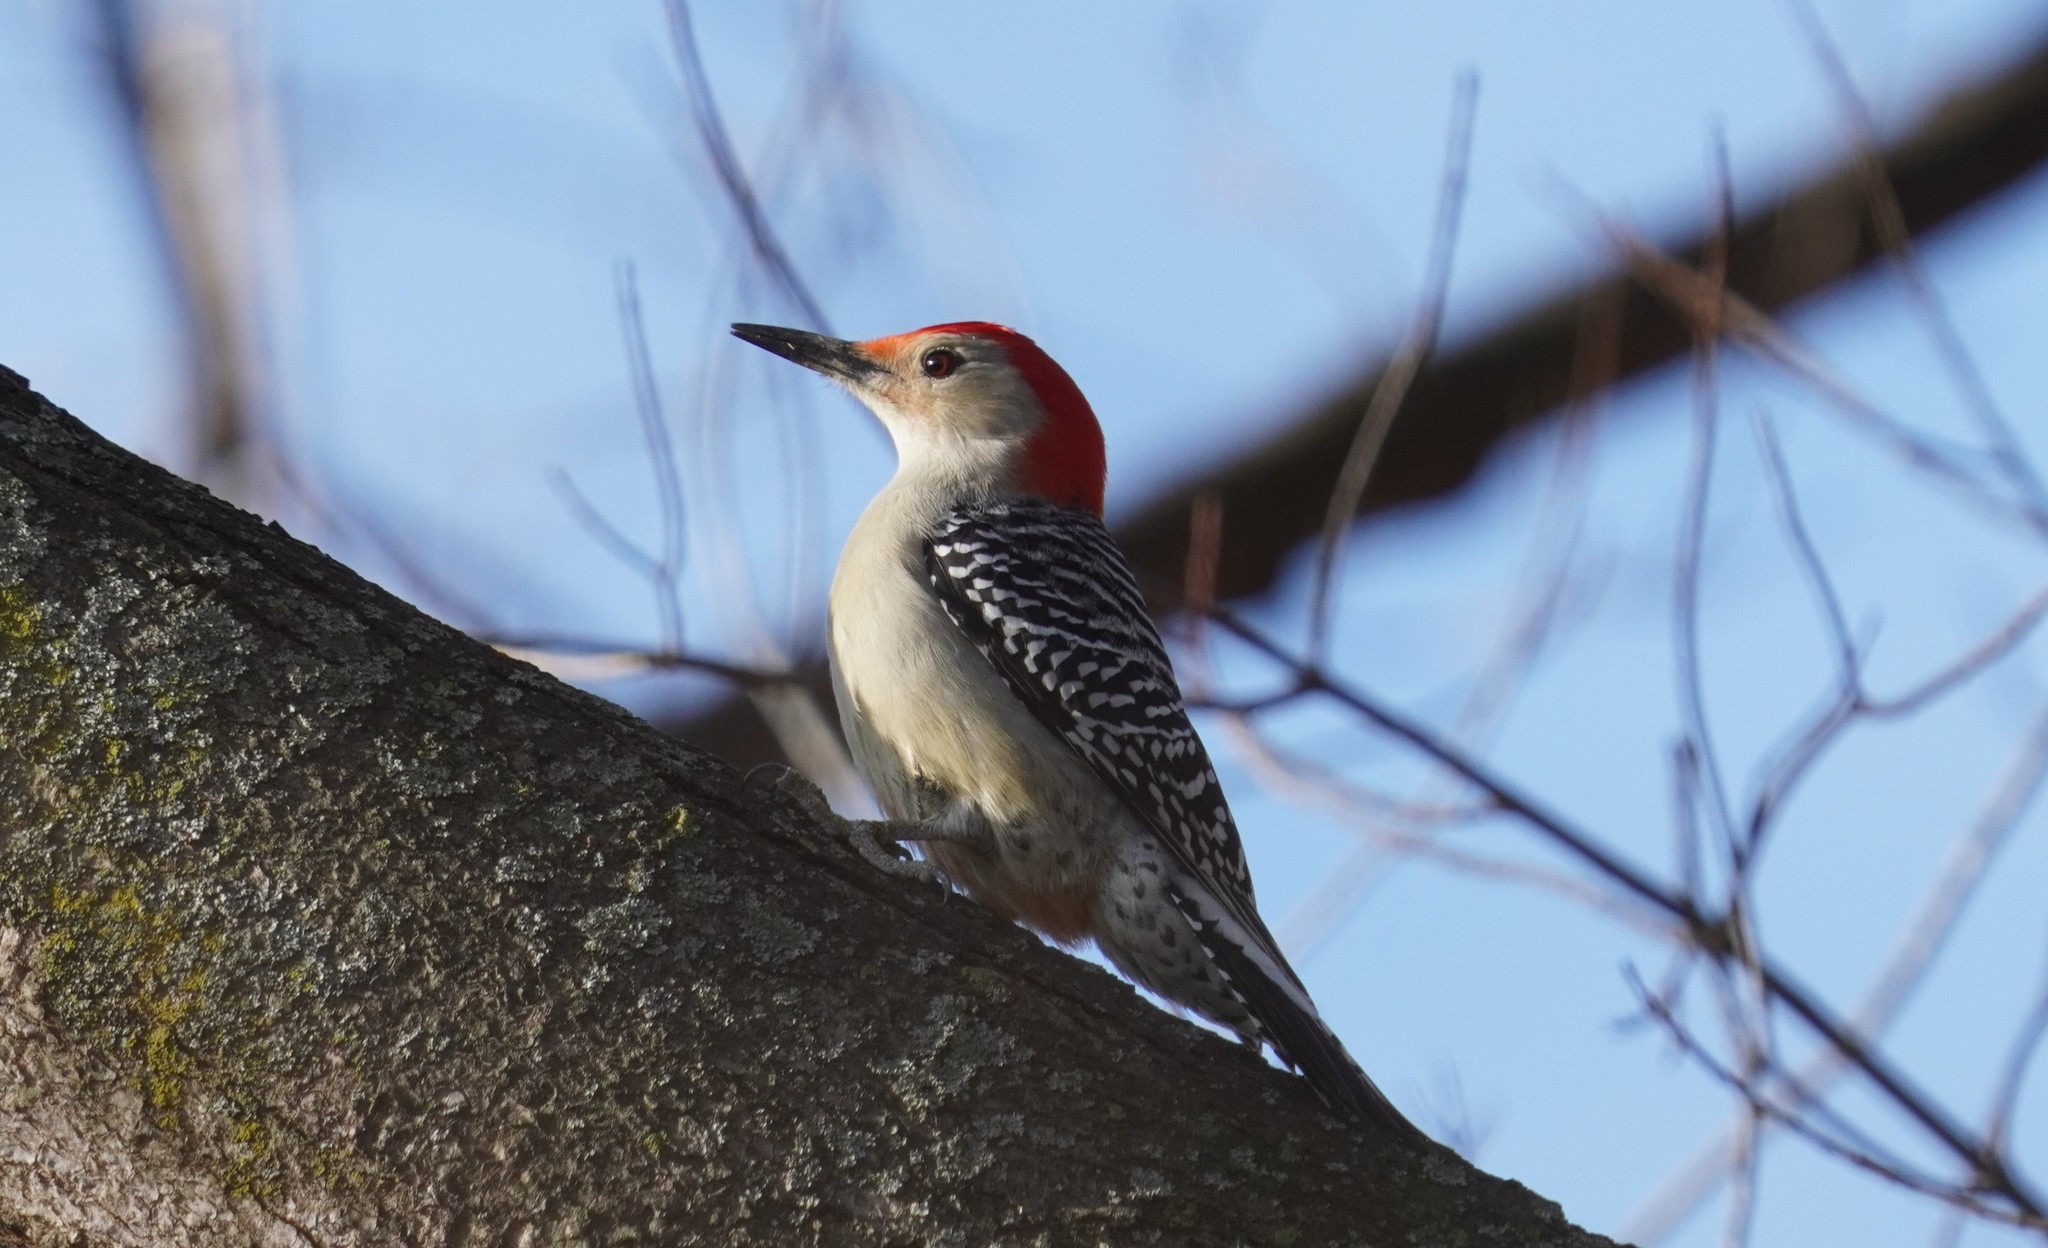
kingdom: Animalia
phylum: Chordata
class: Aves
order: Piciformes
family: Picidae
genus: Melanerpes
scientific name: Melanerpes carolinus
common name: Red-bellied woodpecker
